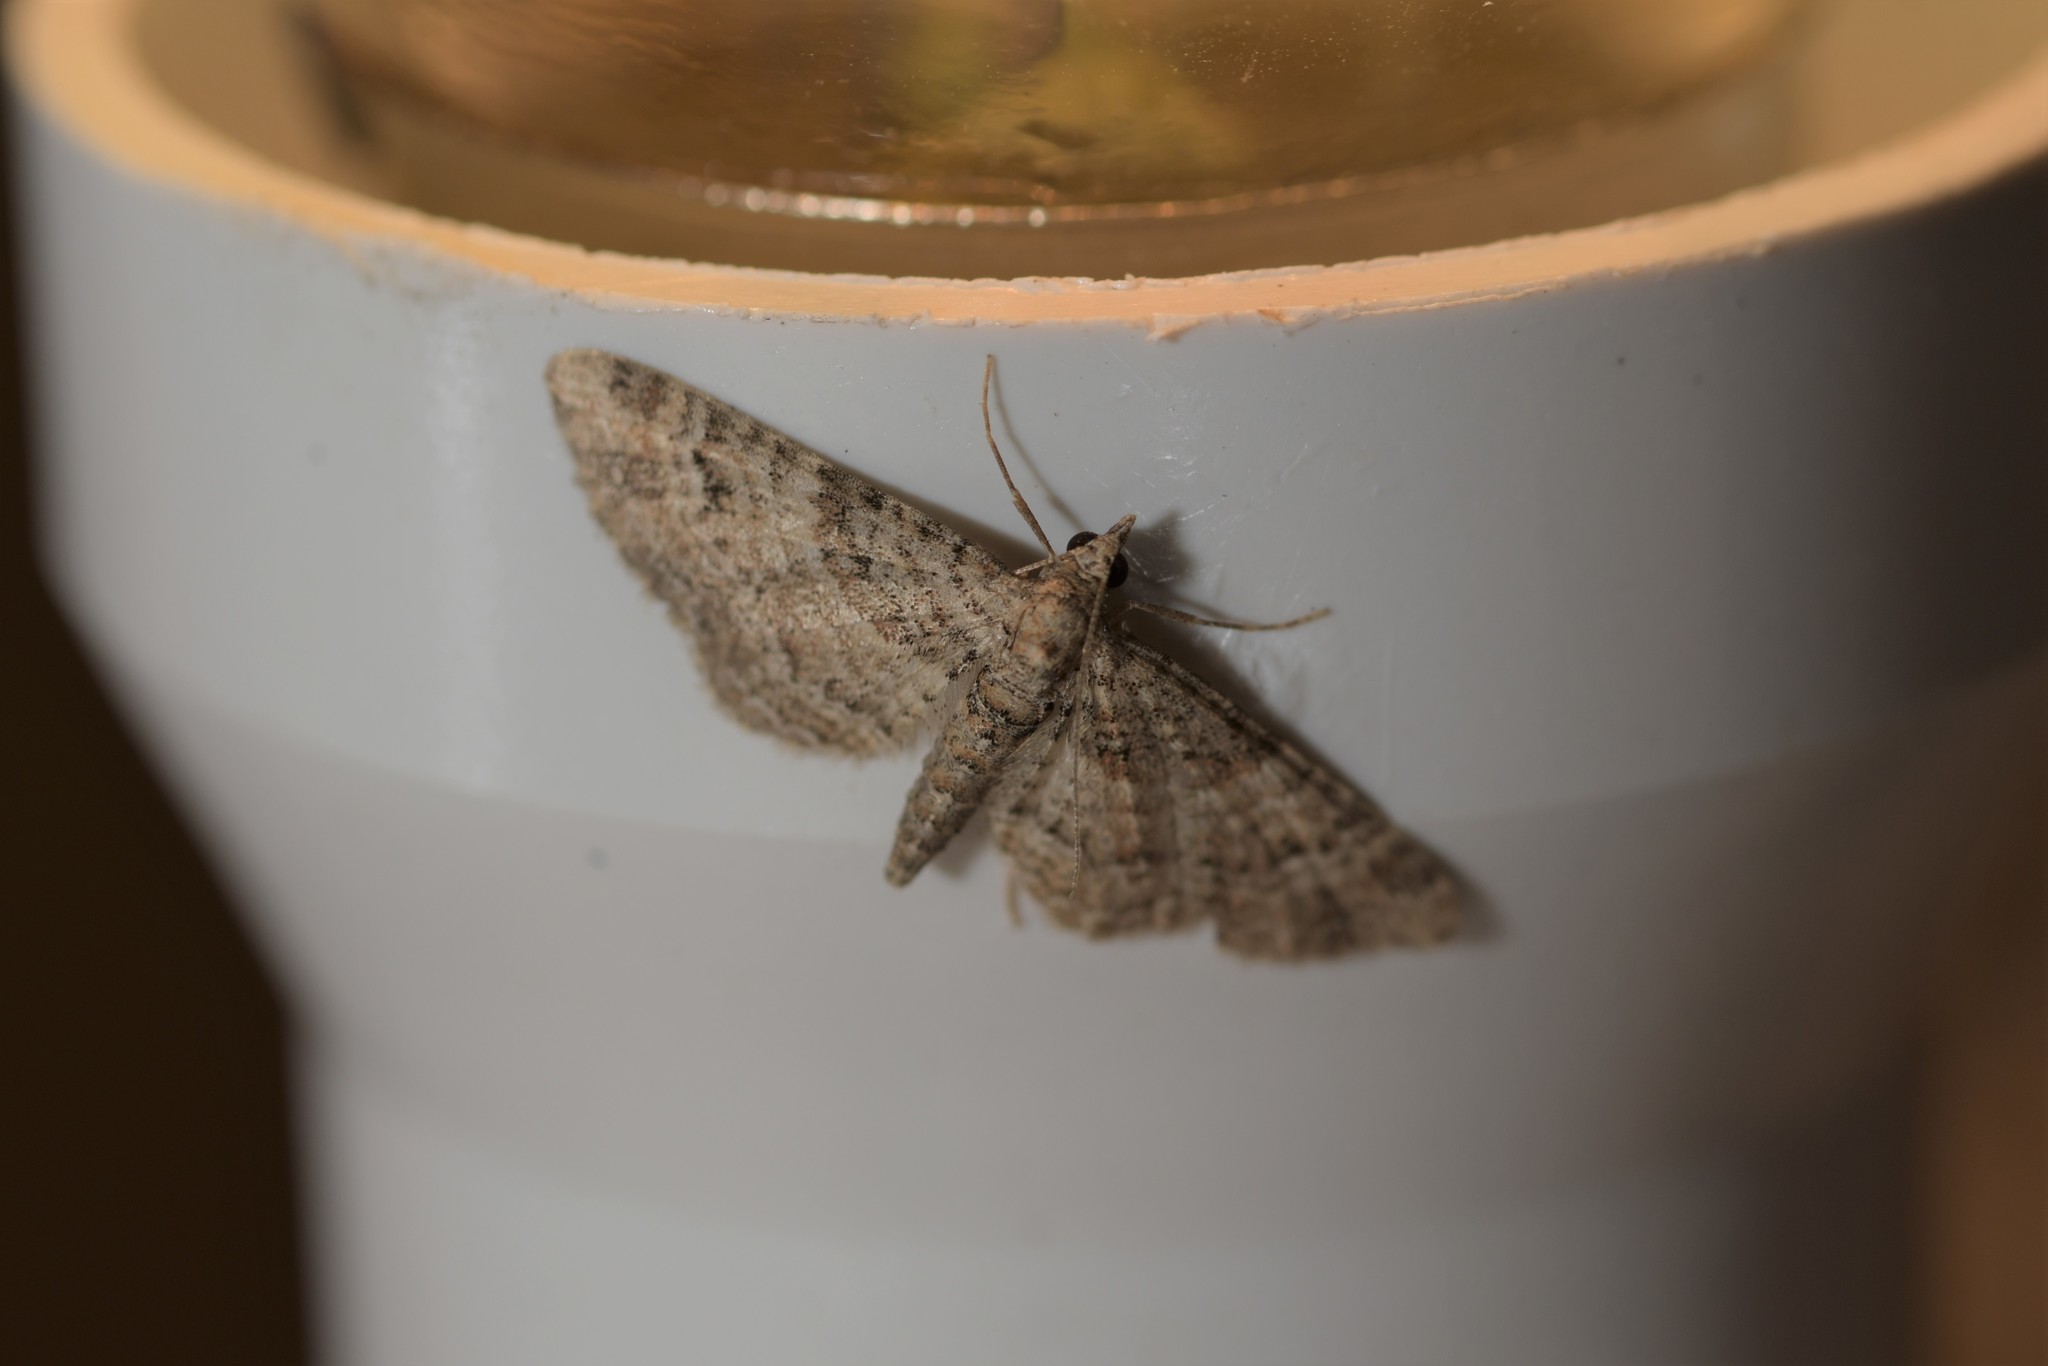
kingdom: Animalia
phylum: Arthropoda
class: Insecta
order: Lepidoptera
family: Geometridae
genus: Gymnoscelis
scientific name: Gymnoscelis rufifasciata
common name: Double-striped pug
